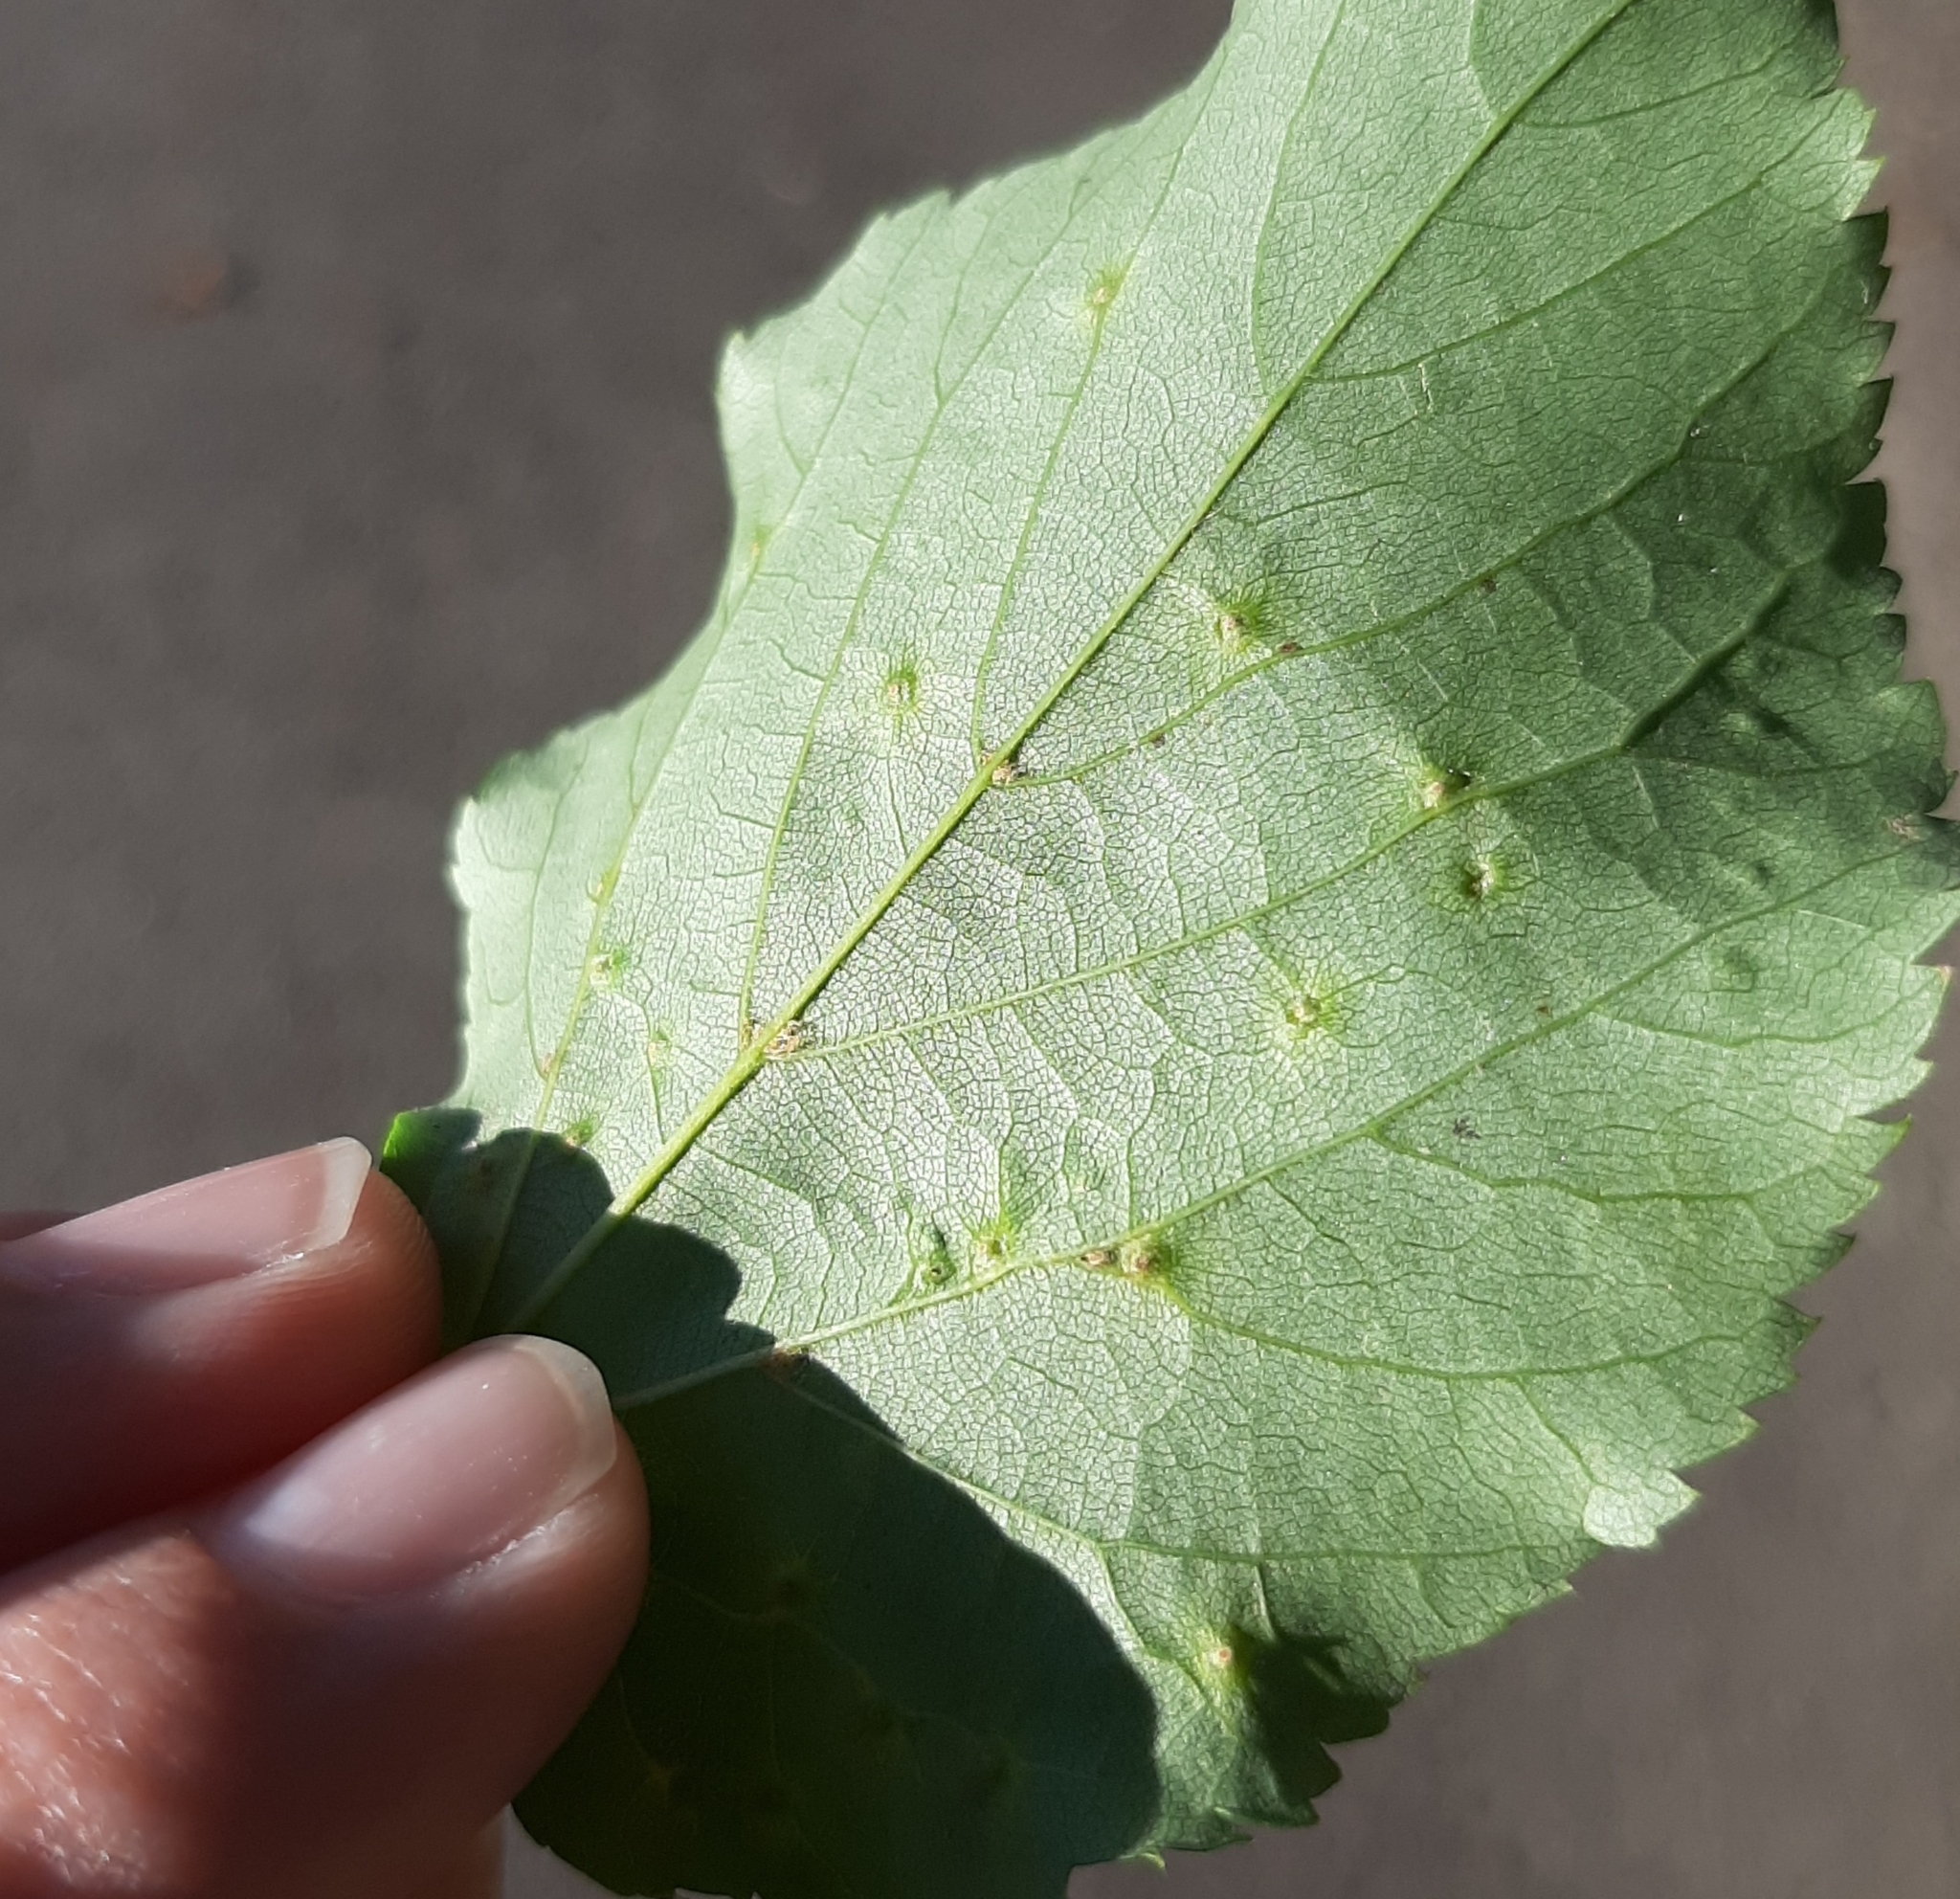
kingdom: Animalia
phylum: Arthropoda
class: Arachnida
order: Trombidiformes
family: Eriophyidae
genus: Eriophyes
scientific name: Eriophyes tiliae
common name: Red nail gall mite
